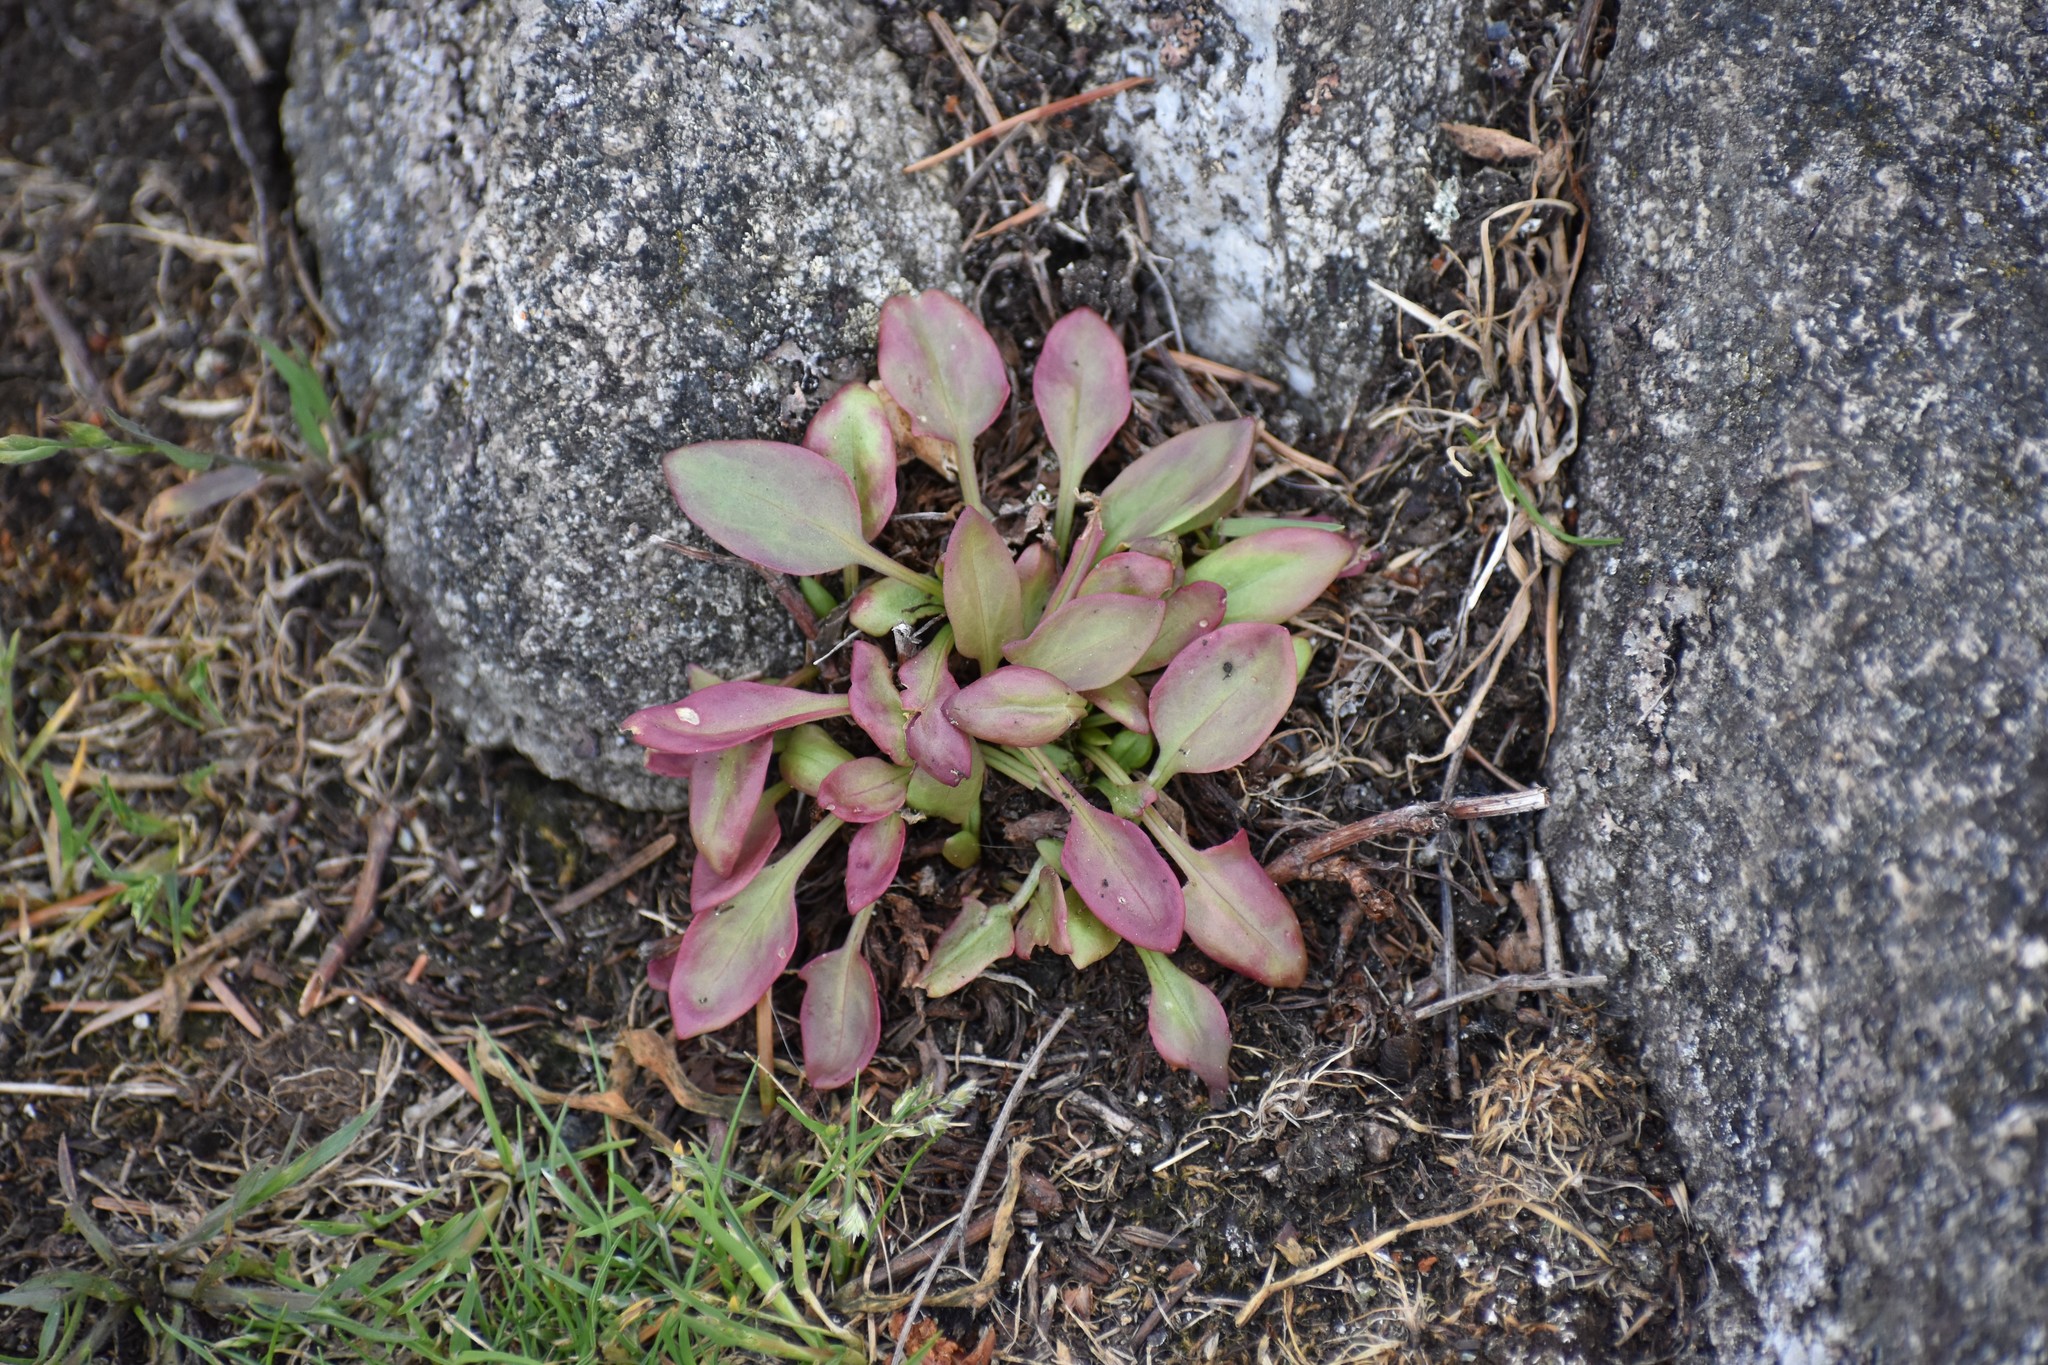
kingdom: Plantae
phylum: Tracheophyta
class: Magnoliopsida
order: Caryophyllales
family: Polygonaceae
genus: Rumex
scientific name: Rumex acetosella
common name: Common sheep sorrel
